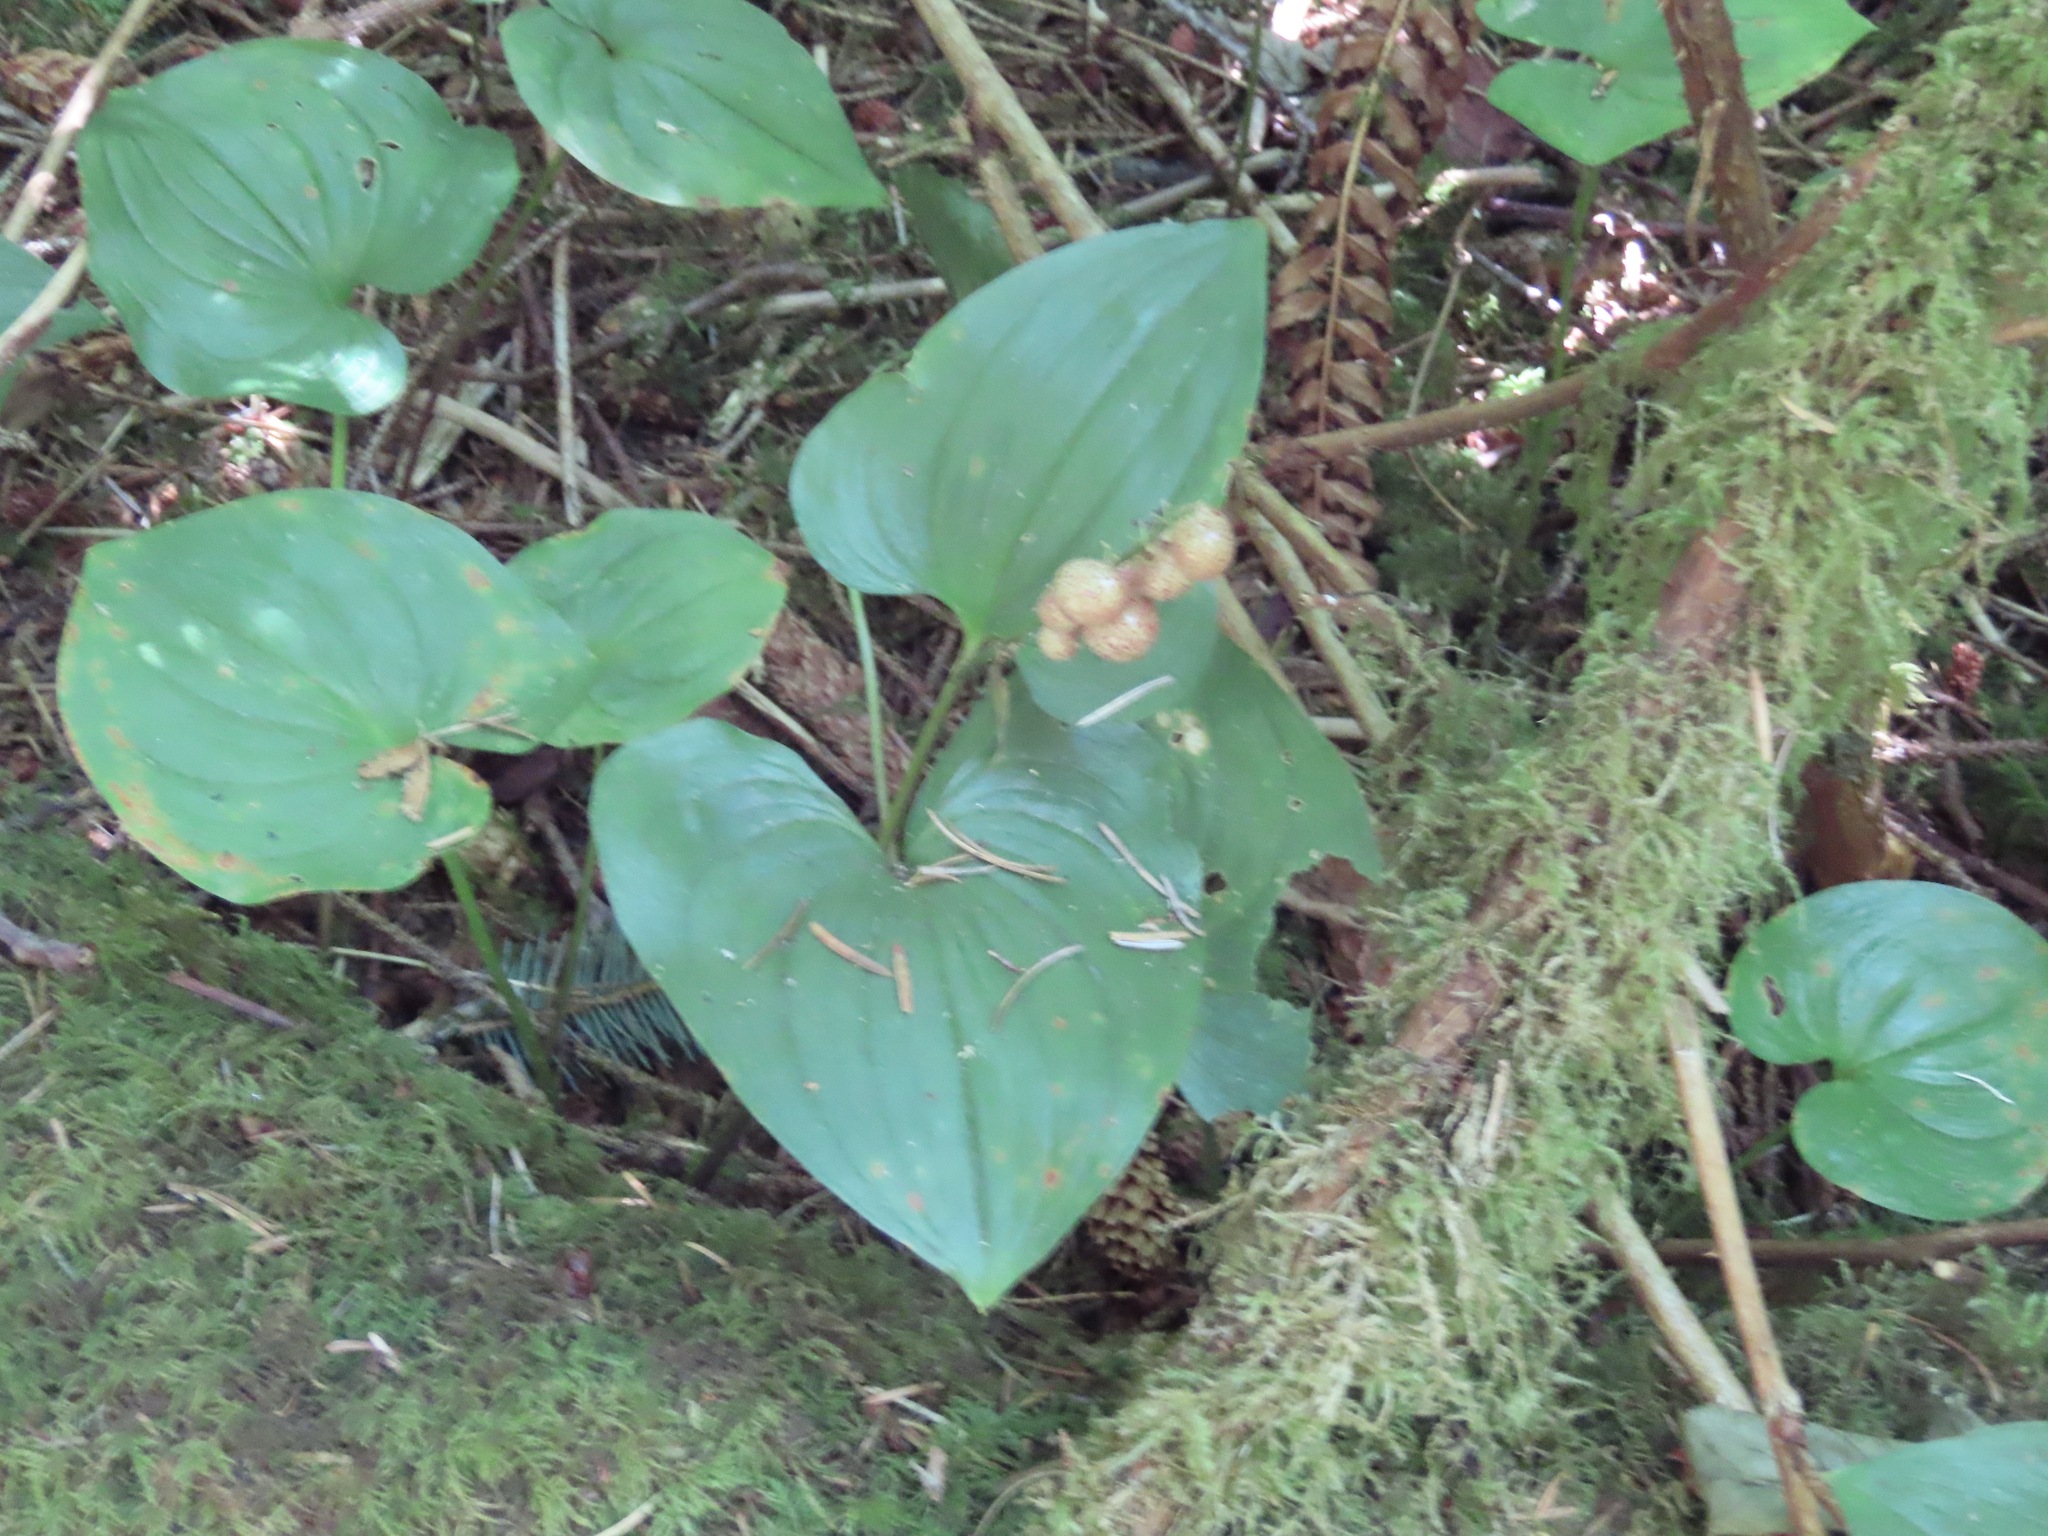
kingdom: Plantae
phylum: Tracheophyta
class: Liliopsida
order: Asparagales
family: Asparagaceae
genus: Maianthemum
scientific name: Maianthemum dilatatum
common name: False lily-of-the-valley
